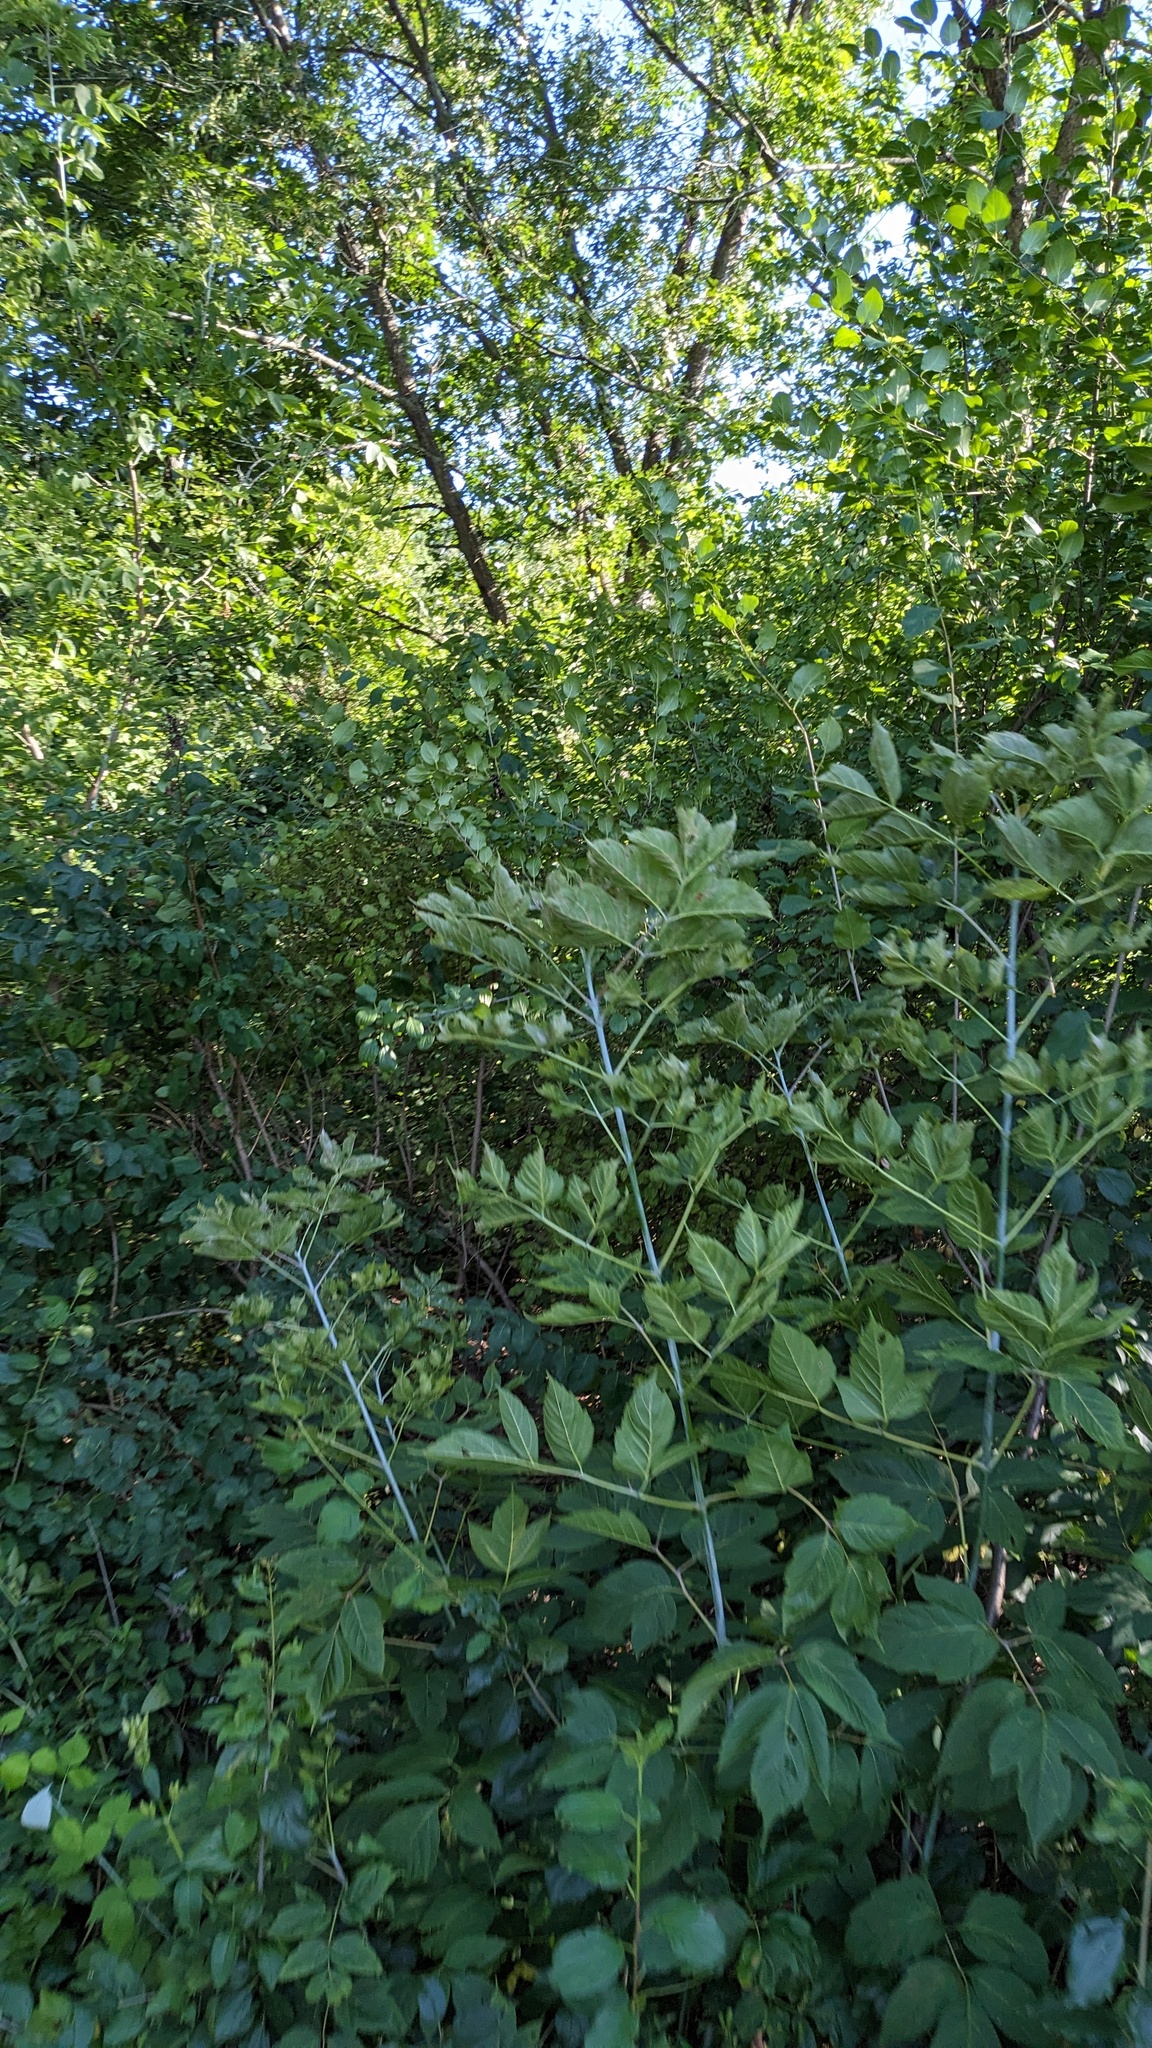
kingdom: Plantae
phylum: Tracheophyta
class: Magnoliopsida
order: Sapindales
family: Sapindaceae
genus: Acer
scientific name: Acer negundo
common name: Ashleaf maple
